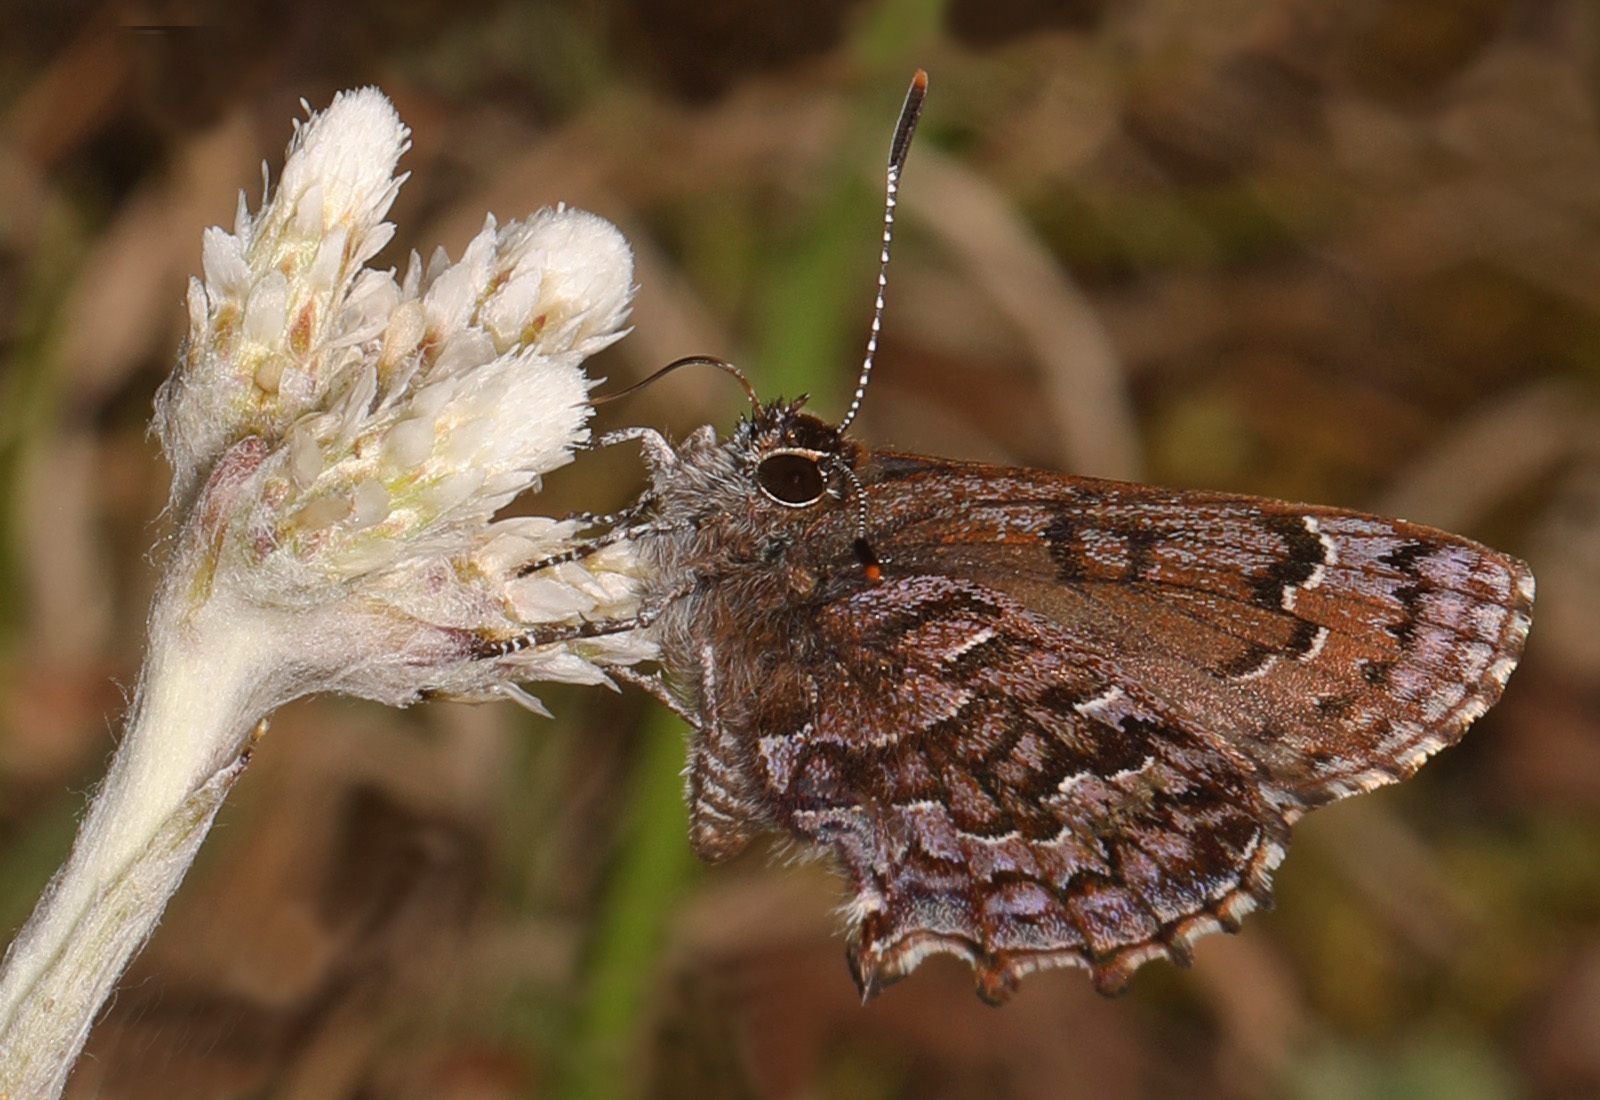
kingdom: Animalia
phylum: Arthropoda
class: Insecta
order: Lepidoptera
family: Lycaenidae
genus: Incisalia
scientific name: Incisalia niphon
